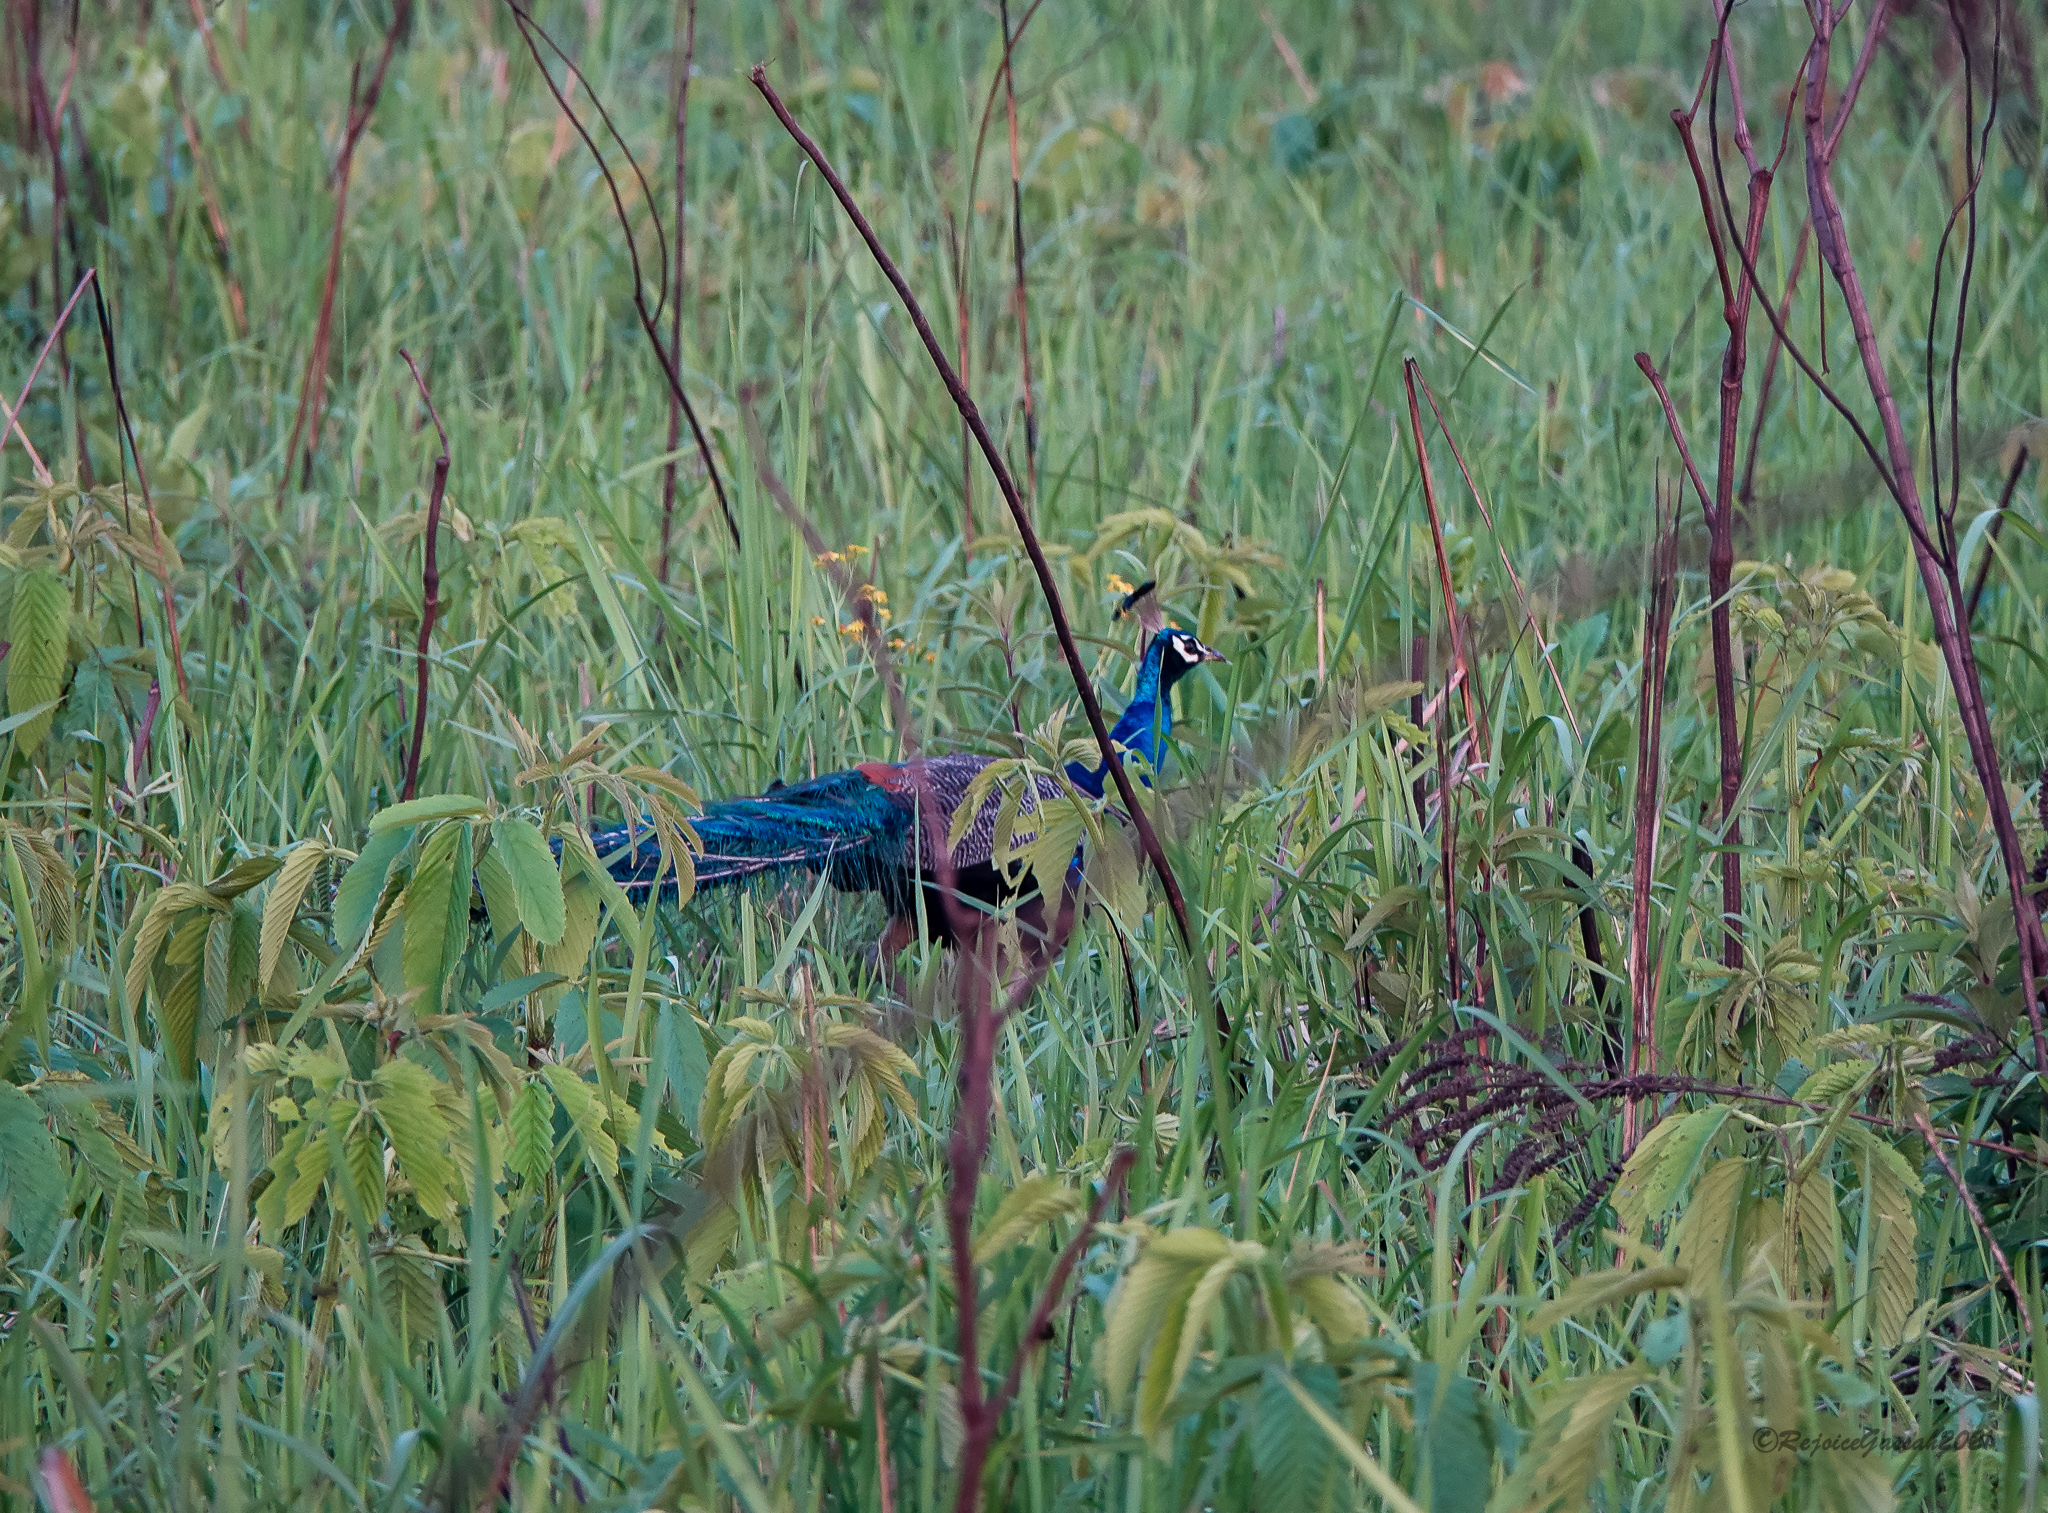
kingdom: Animalia
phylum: Chordata
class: Aves
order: Galliformes
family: Phasianidae
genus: Pavo
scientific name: Pavo cristatus
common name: Indian peafowl
